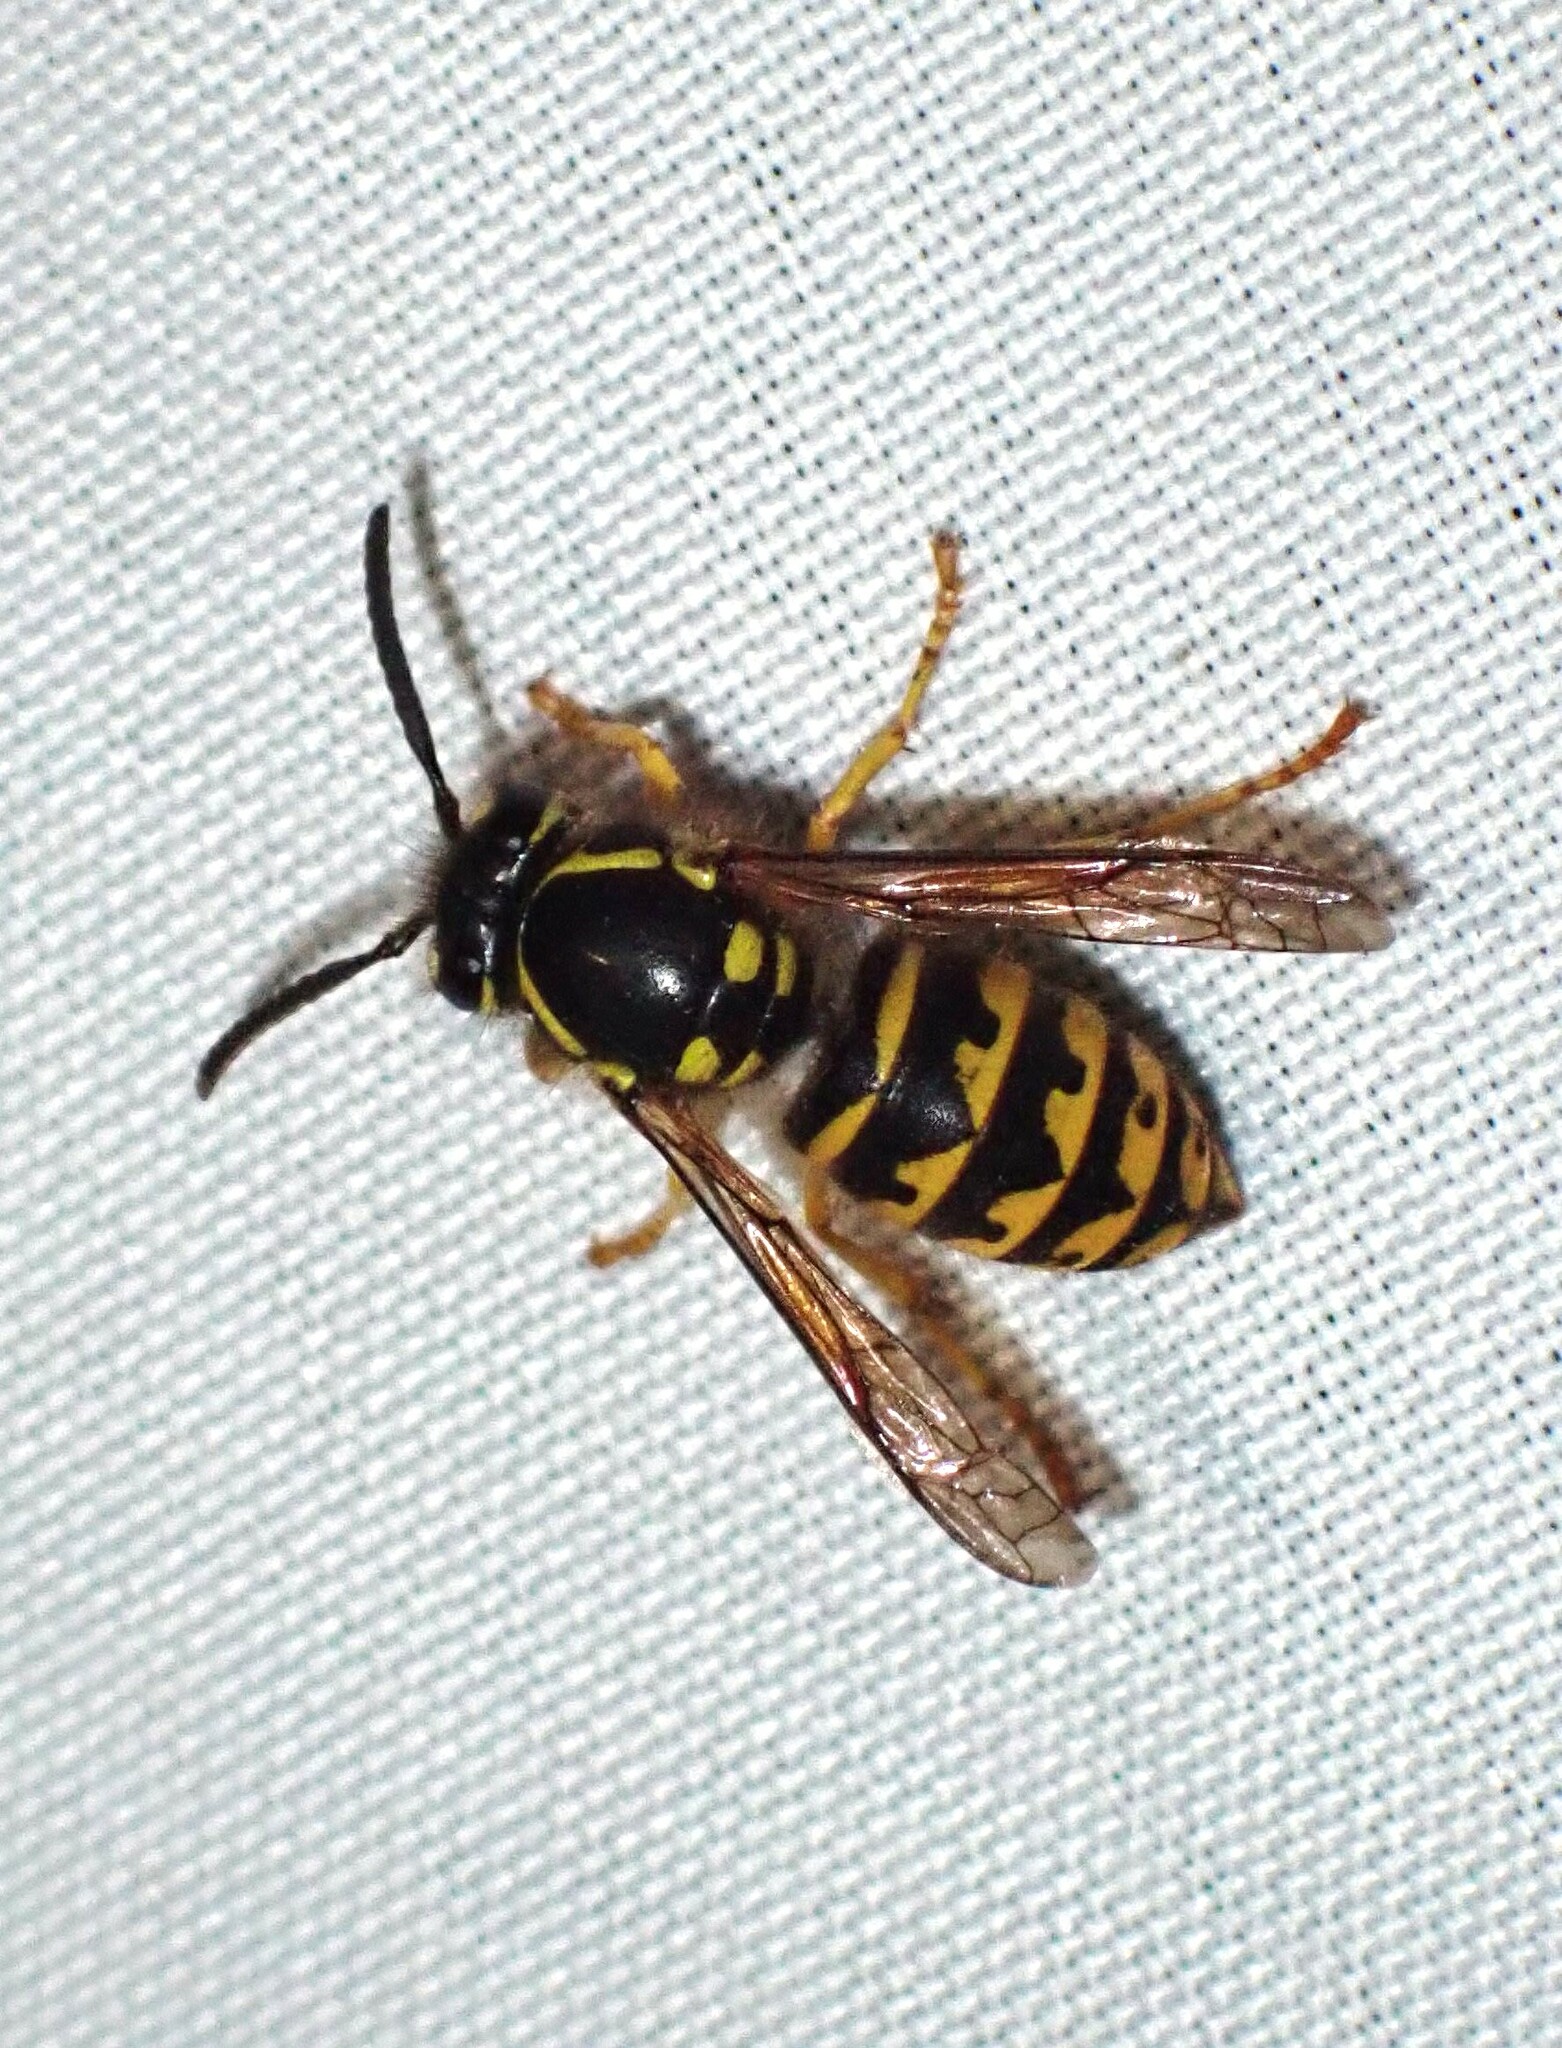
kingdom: Animalia
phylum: Arthropoda
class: Insecta
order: Hymenoptera
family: Vespidae
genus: Dolichovespula
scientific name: Dolichovespula arenaria
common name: Aerial yellowjacket
